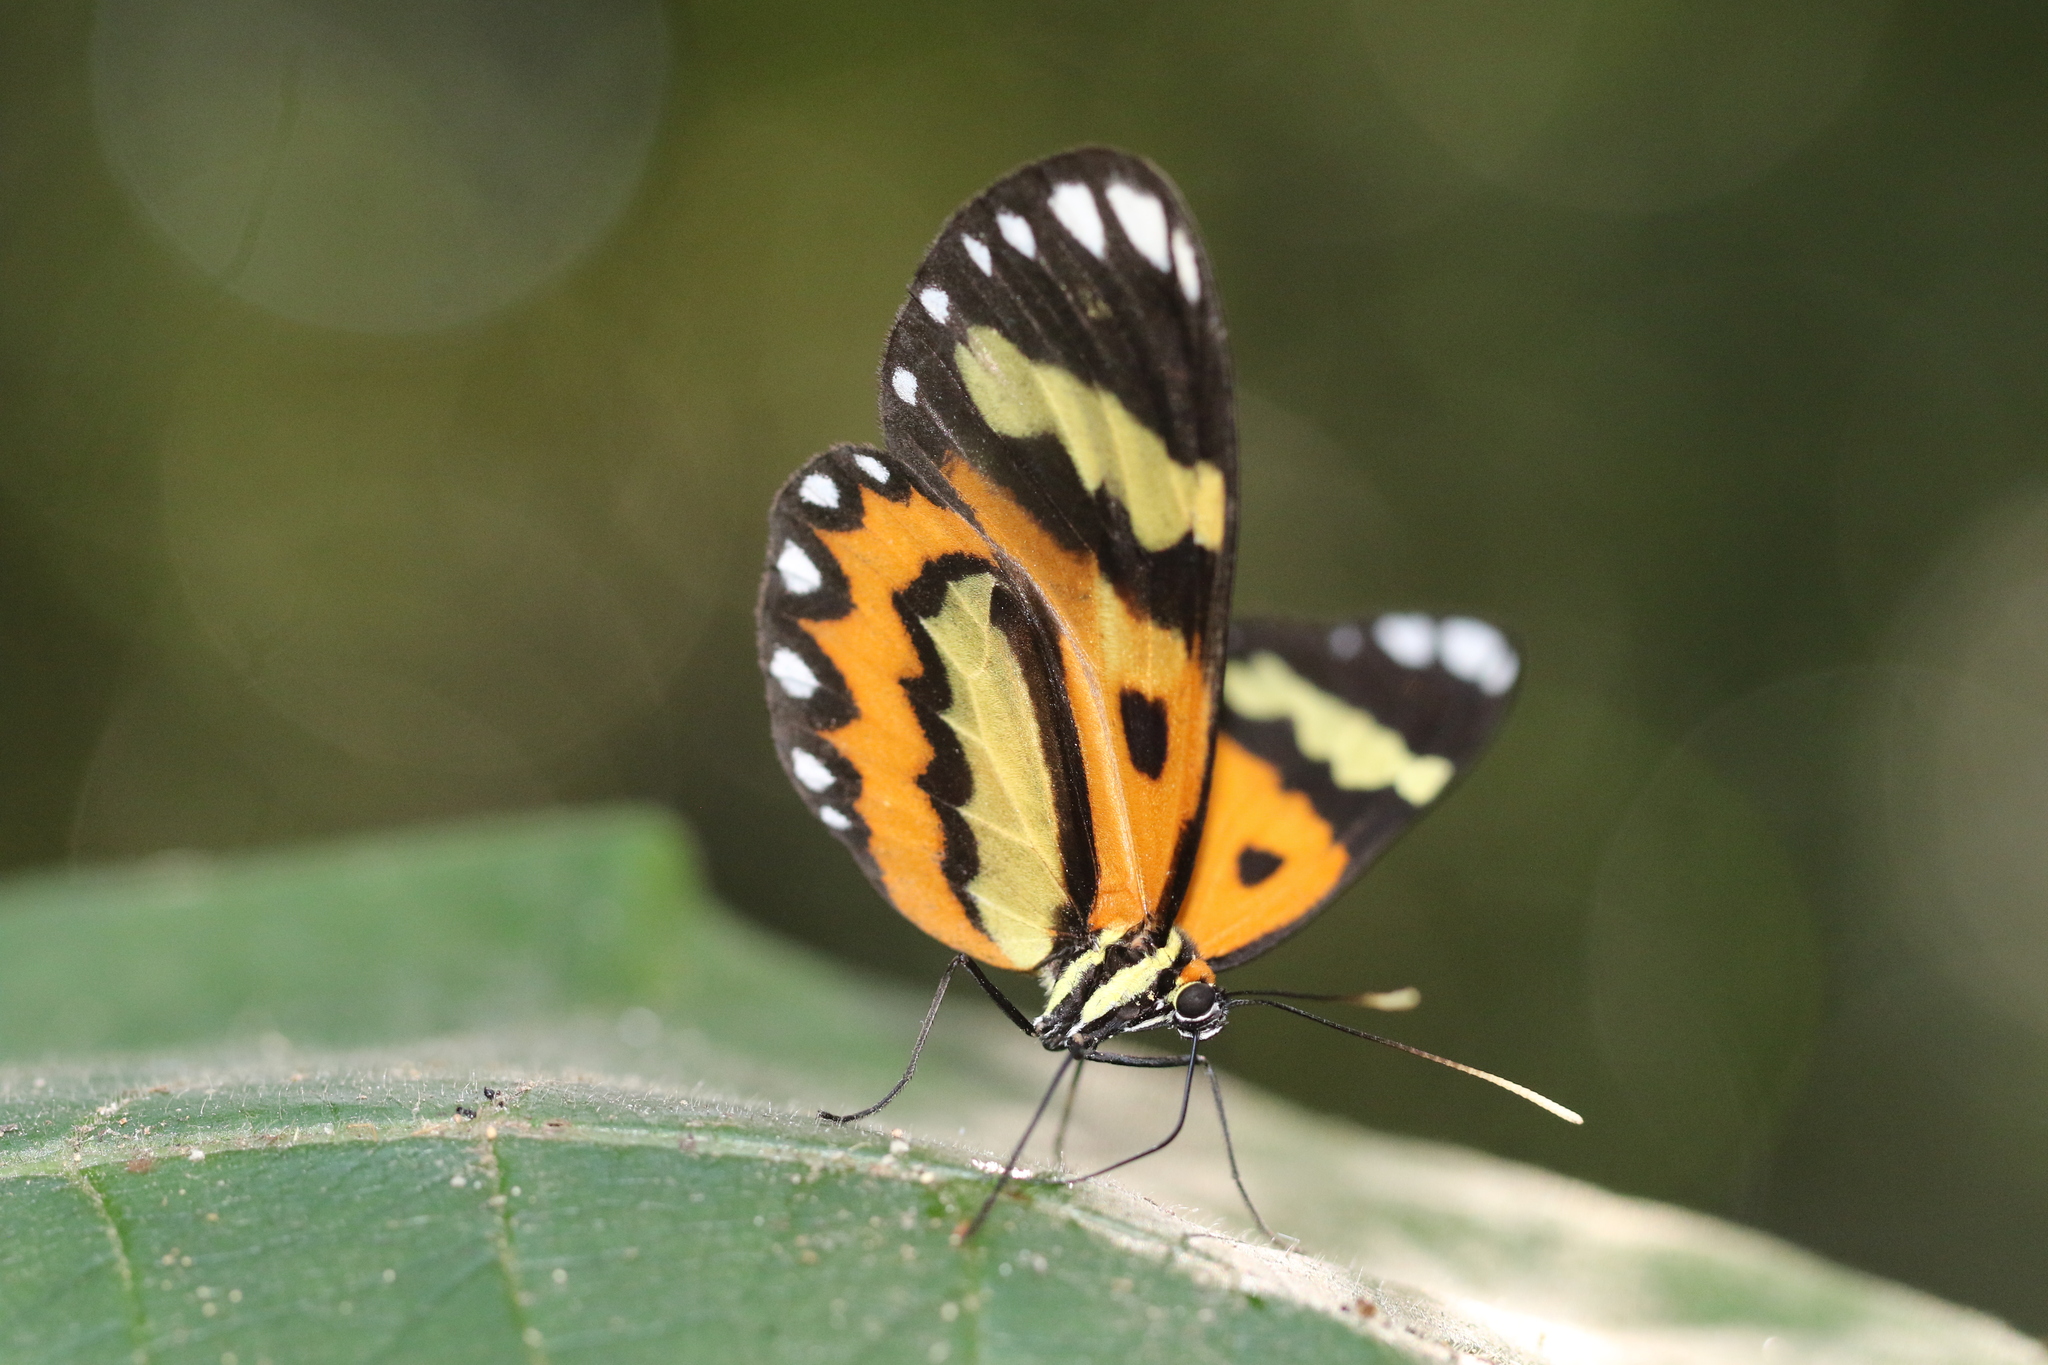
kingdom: Animalia
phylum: Arthropoda
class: Insecta
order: Lepidoptera
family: Nymphalidae
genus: Placidina
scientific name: Placidina euryanassa
